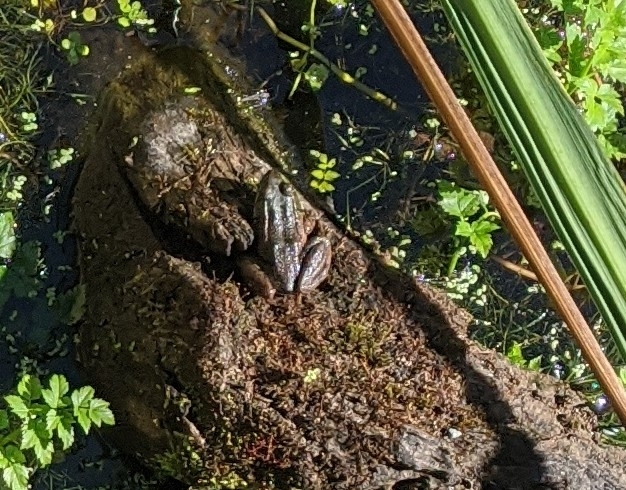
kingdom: Animalia
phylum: Chordata
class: Amphibia
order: Anura
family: Ranidae
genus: Lithobates
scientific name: Lithobates clamitans
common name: Green frog
